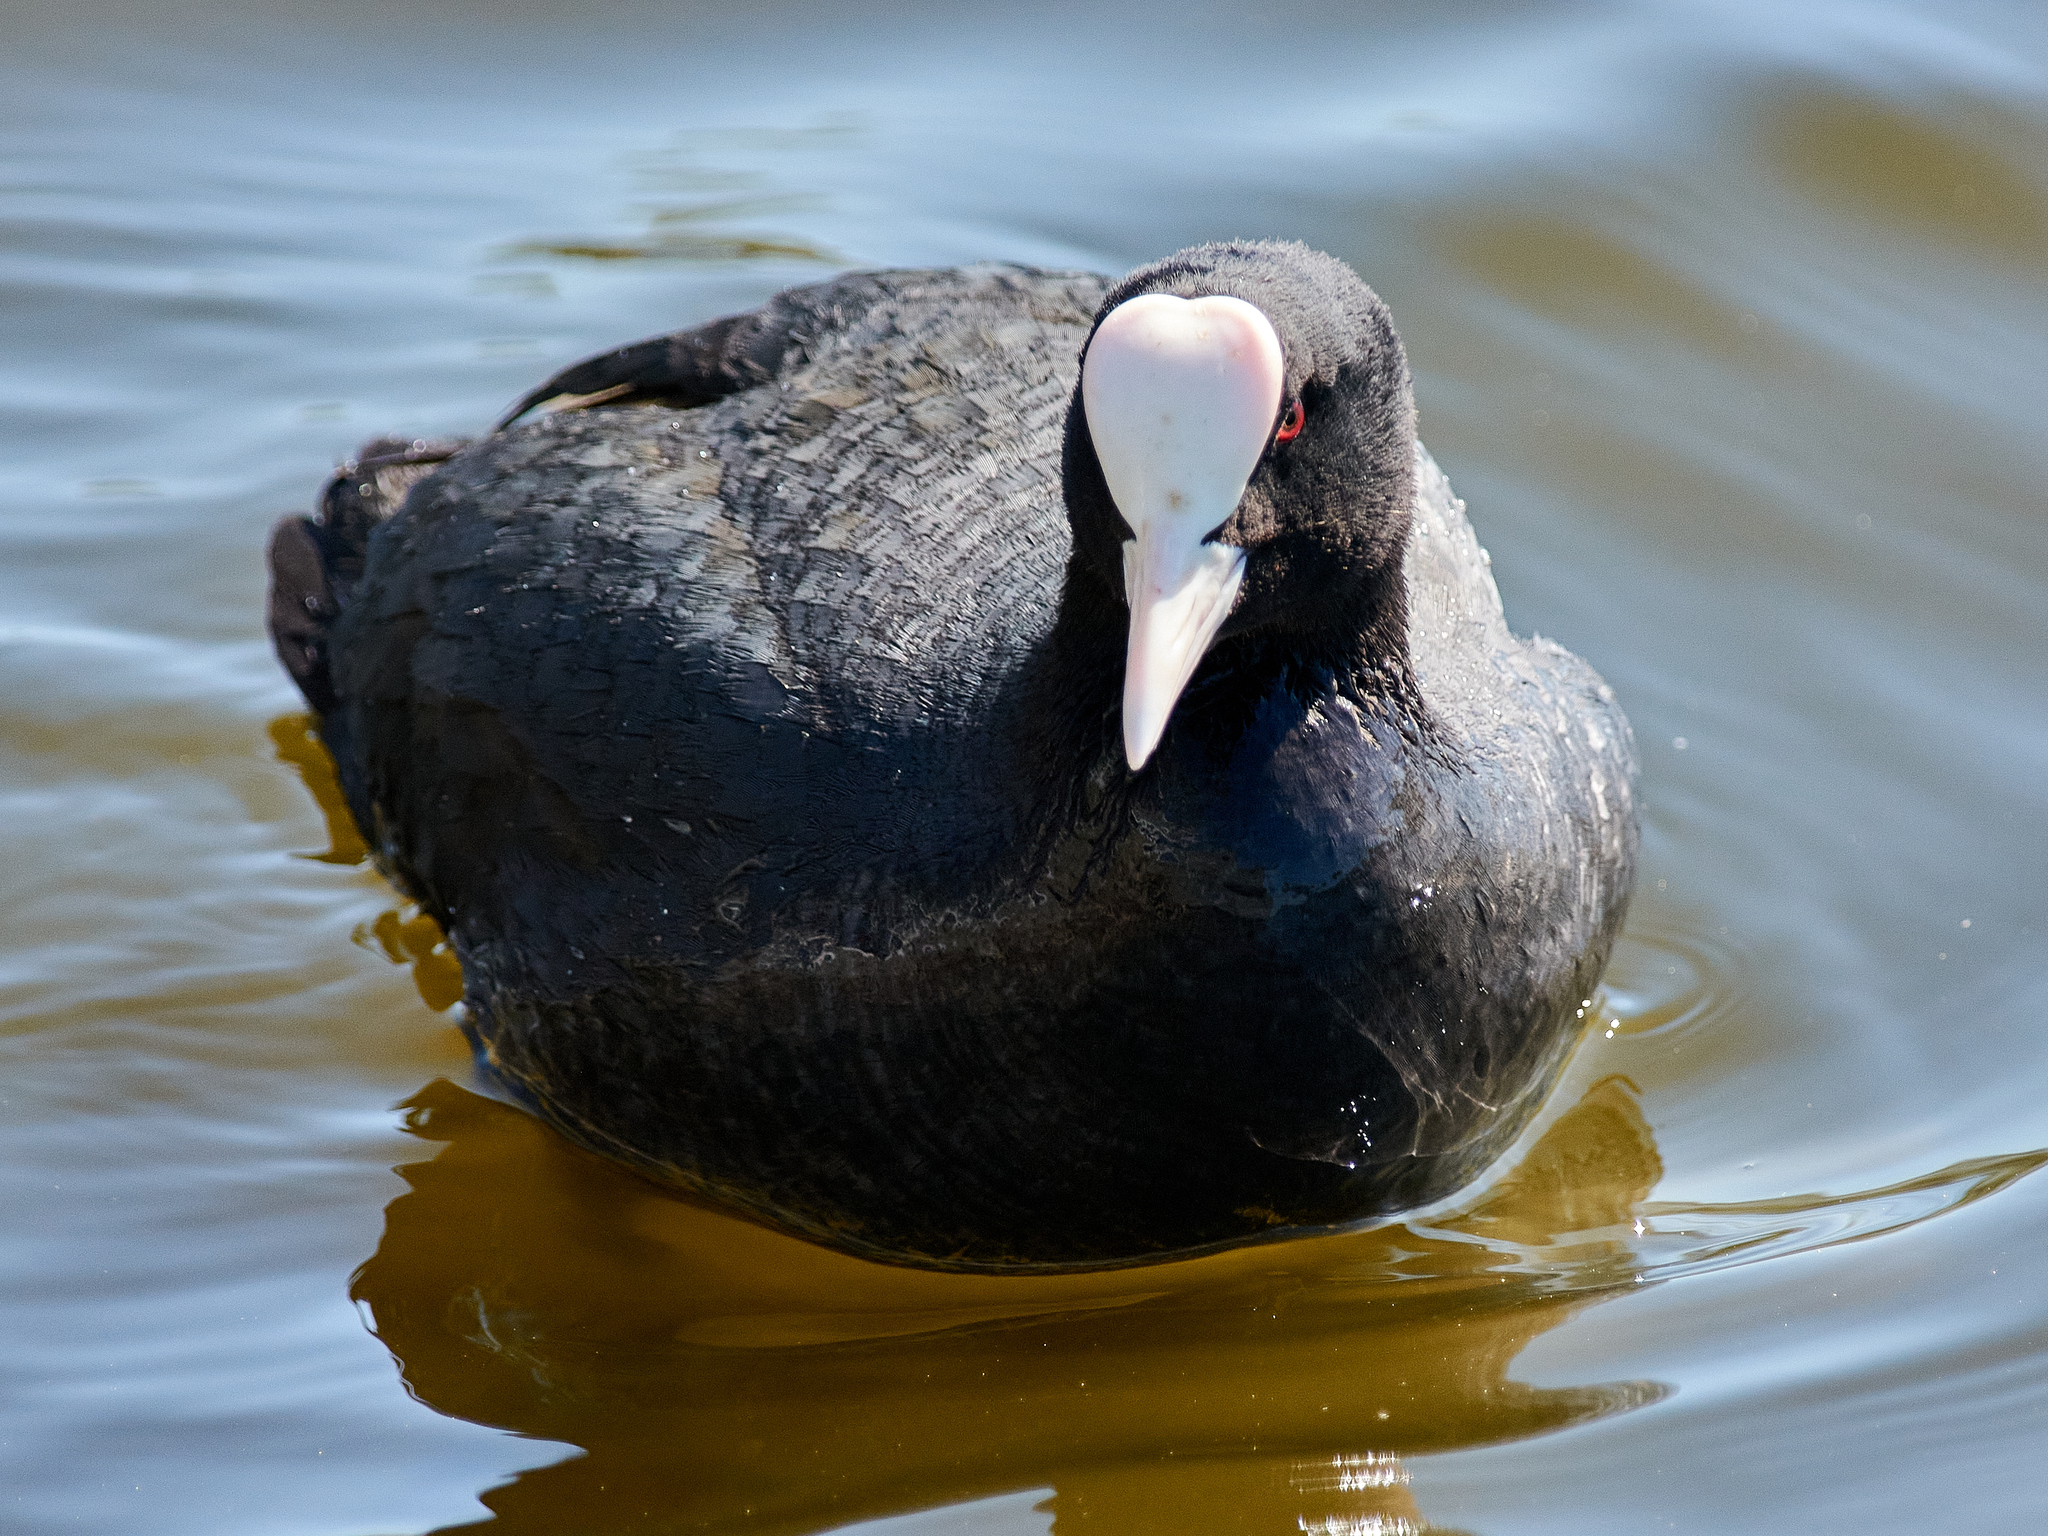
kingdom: Animalia
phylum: Chordata
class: Aves
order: Gruiformes
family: Rallidae
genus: Fulica
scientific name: Fulica atra
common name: Eurasian coot
